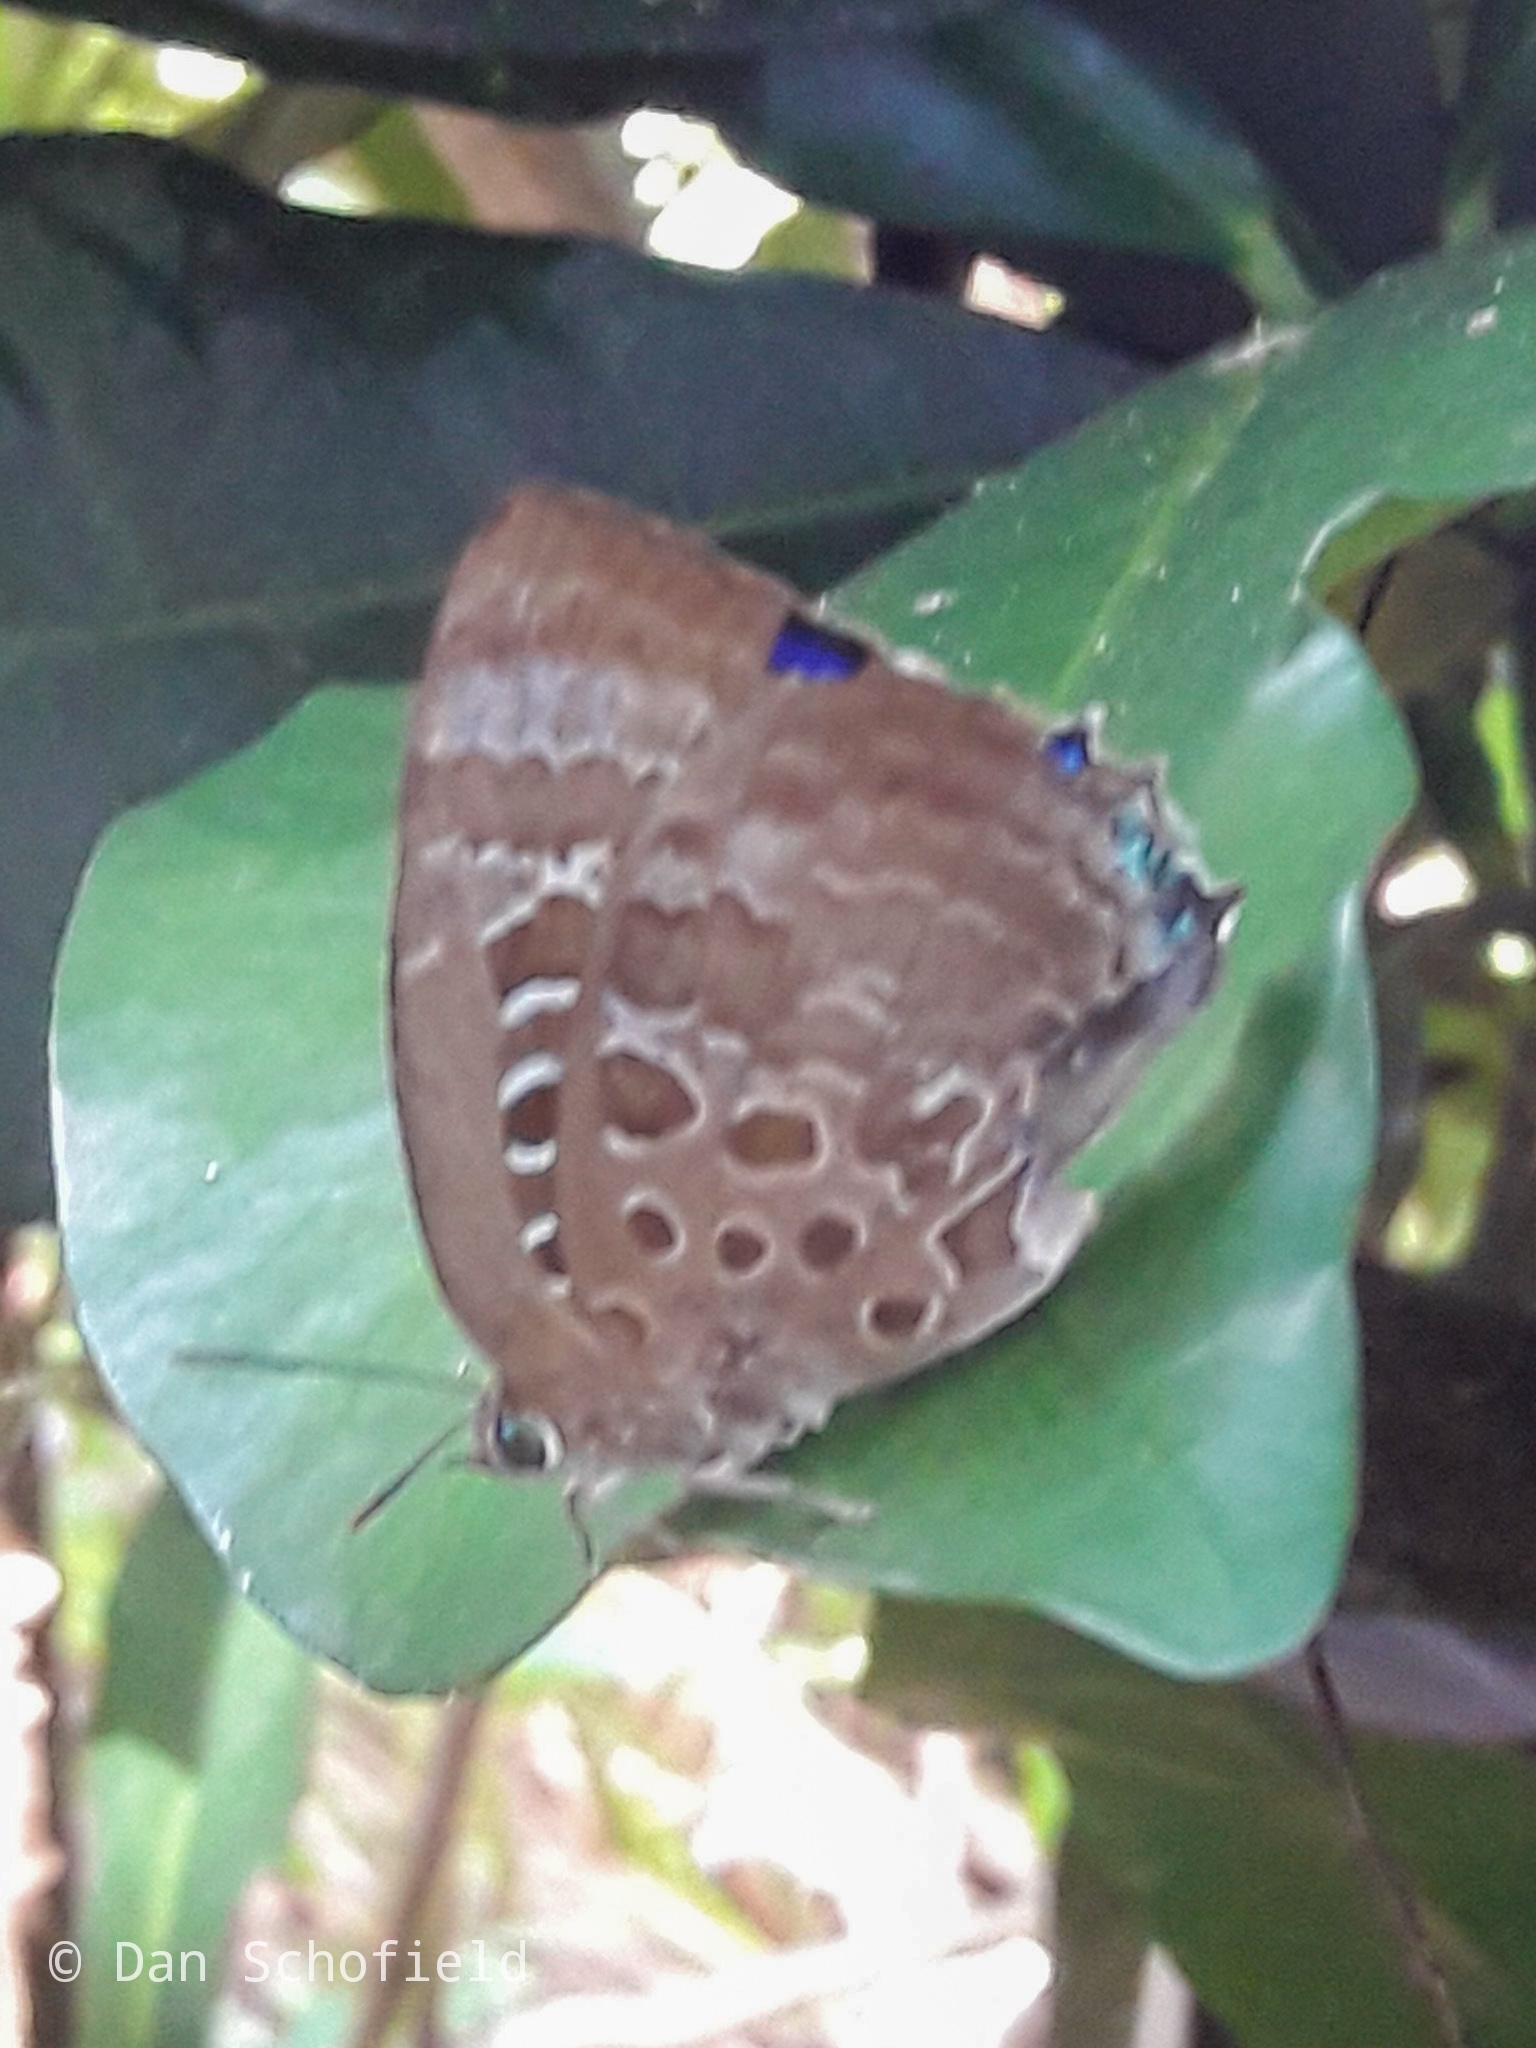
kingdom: Animalia
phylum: Arthropoda
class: Insecta
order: Lepidoptera
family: Lycaenidae
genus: Arhopala
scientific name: Arhopala araxes
